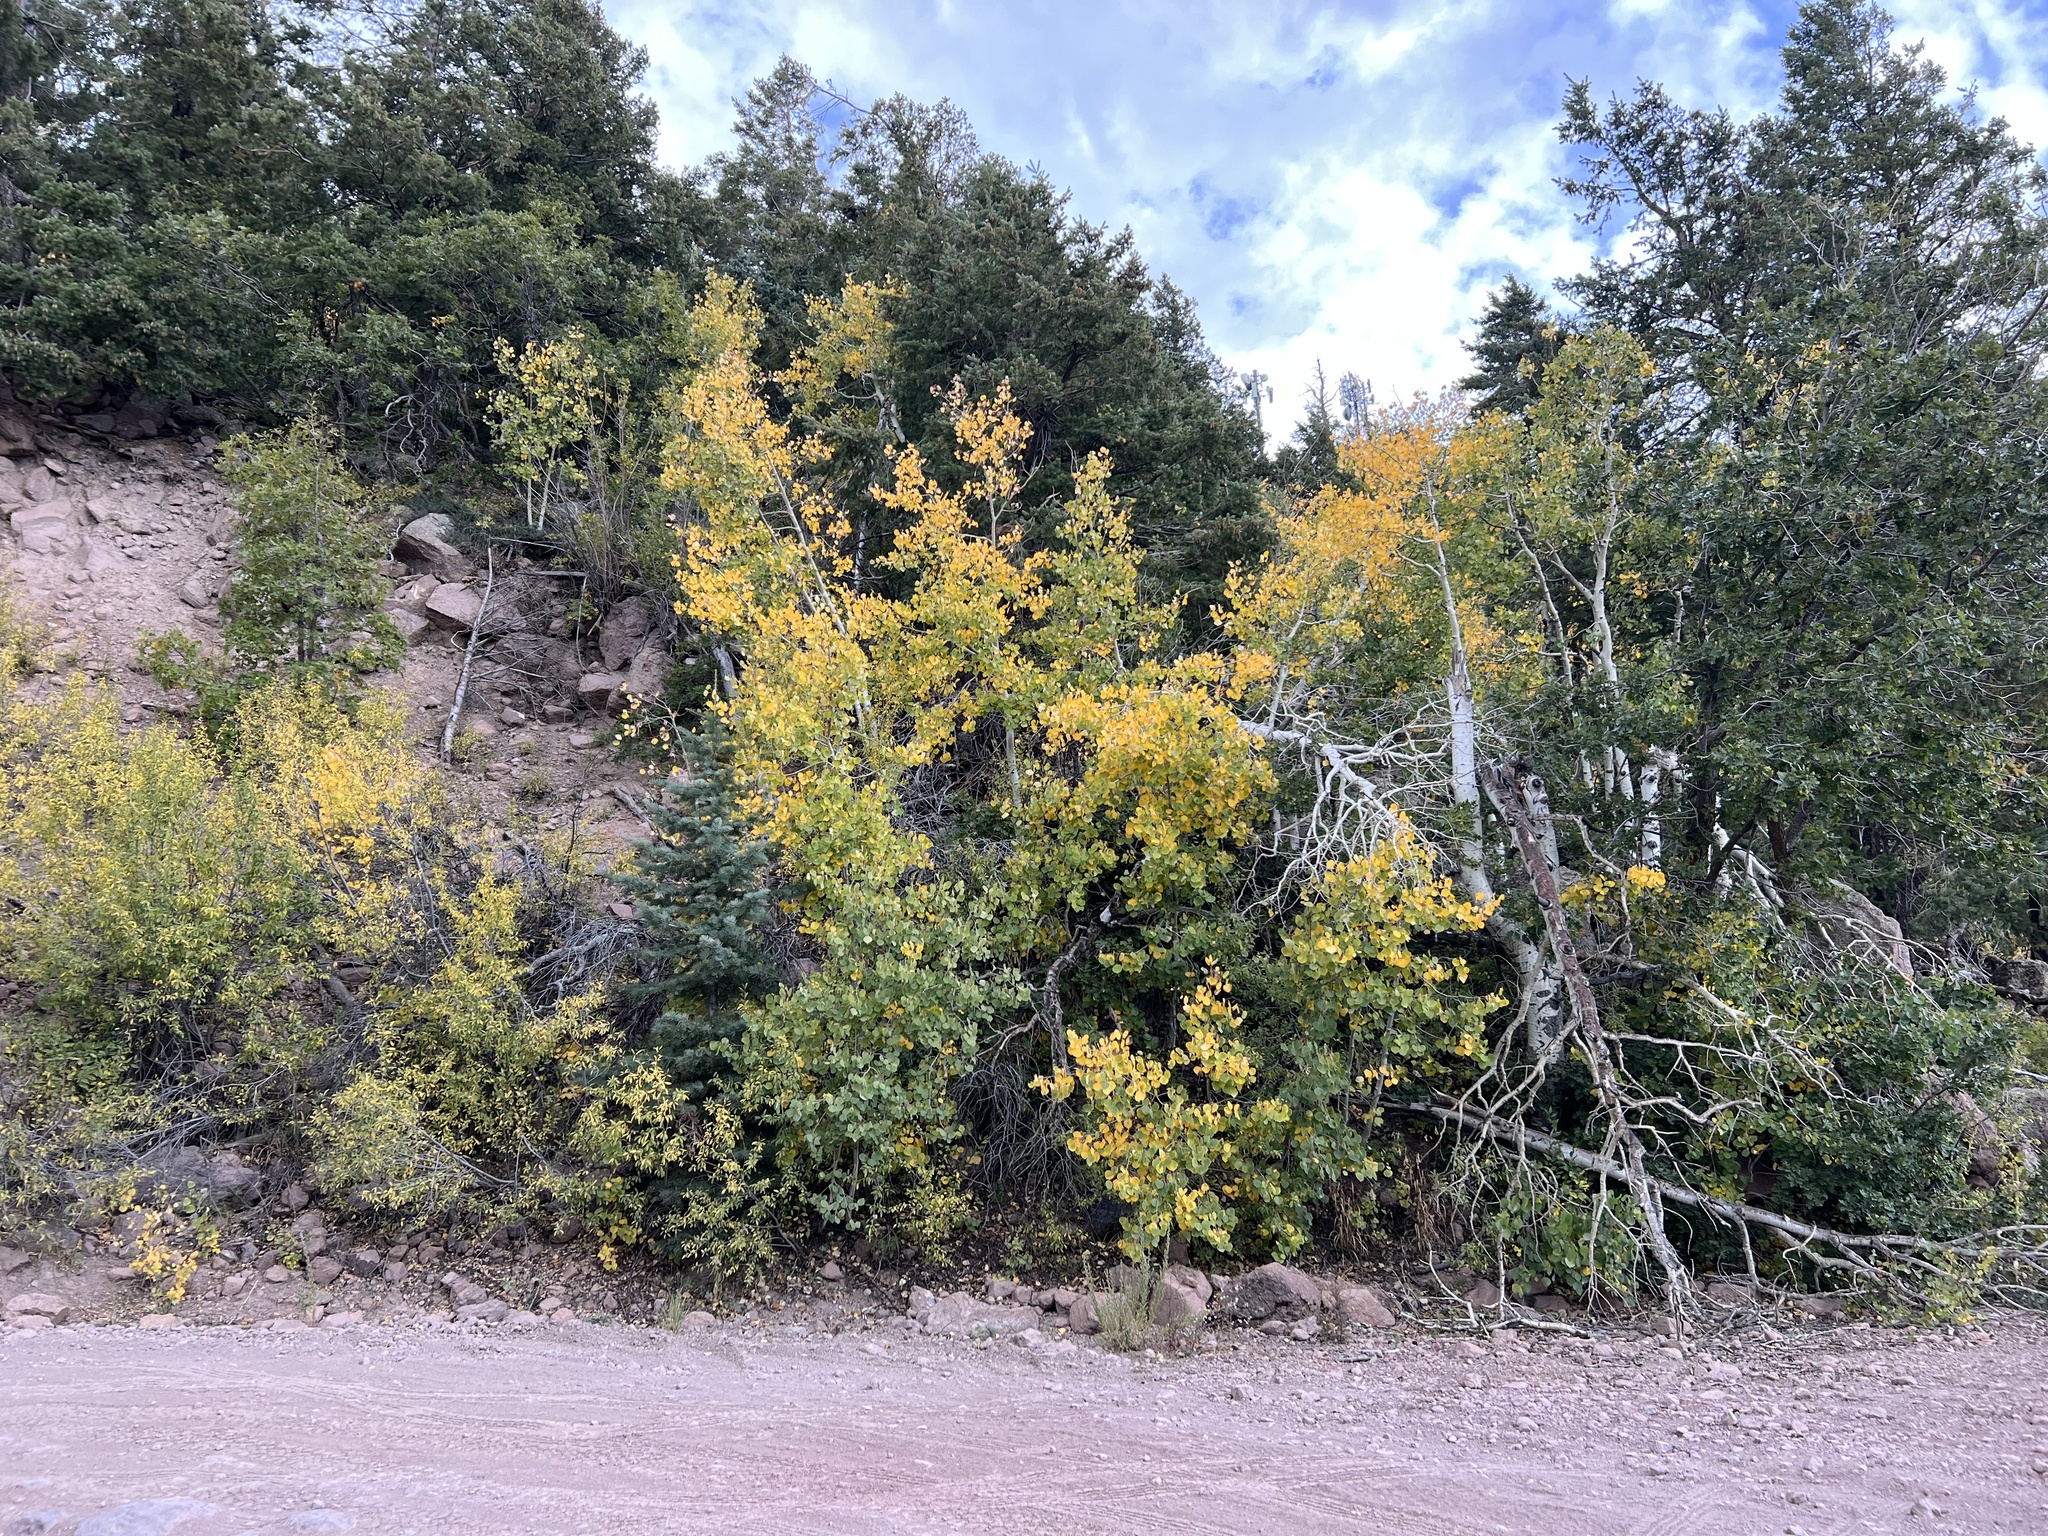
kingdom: Plantae
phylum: Tracheophyta
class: Magnoliopsida
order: Malpighiales
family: Salicaceae
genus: Populus
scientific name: Populus tremuloides
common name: Quaking aspen
